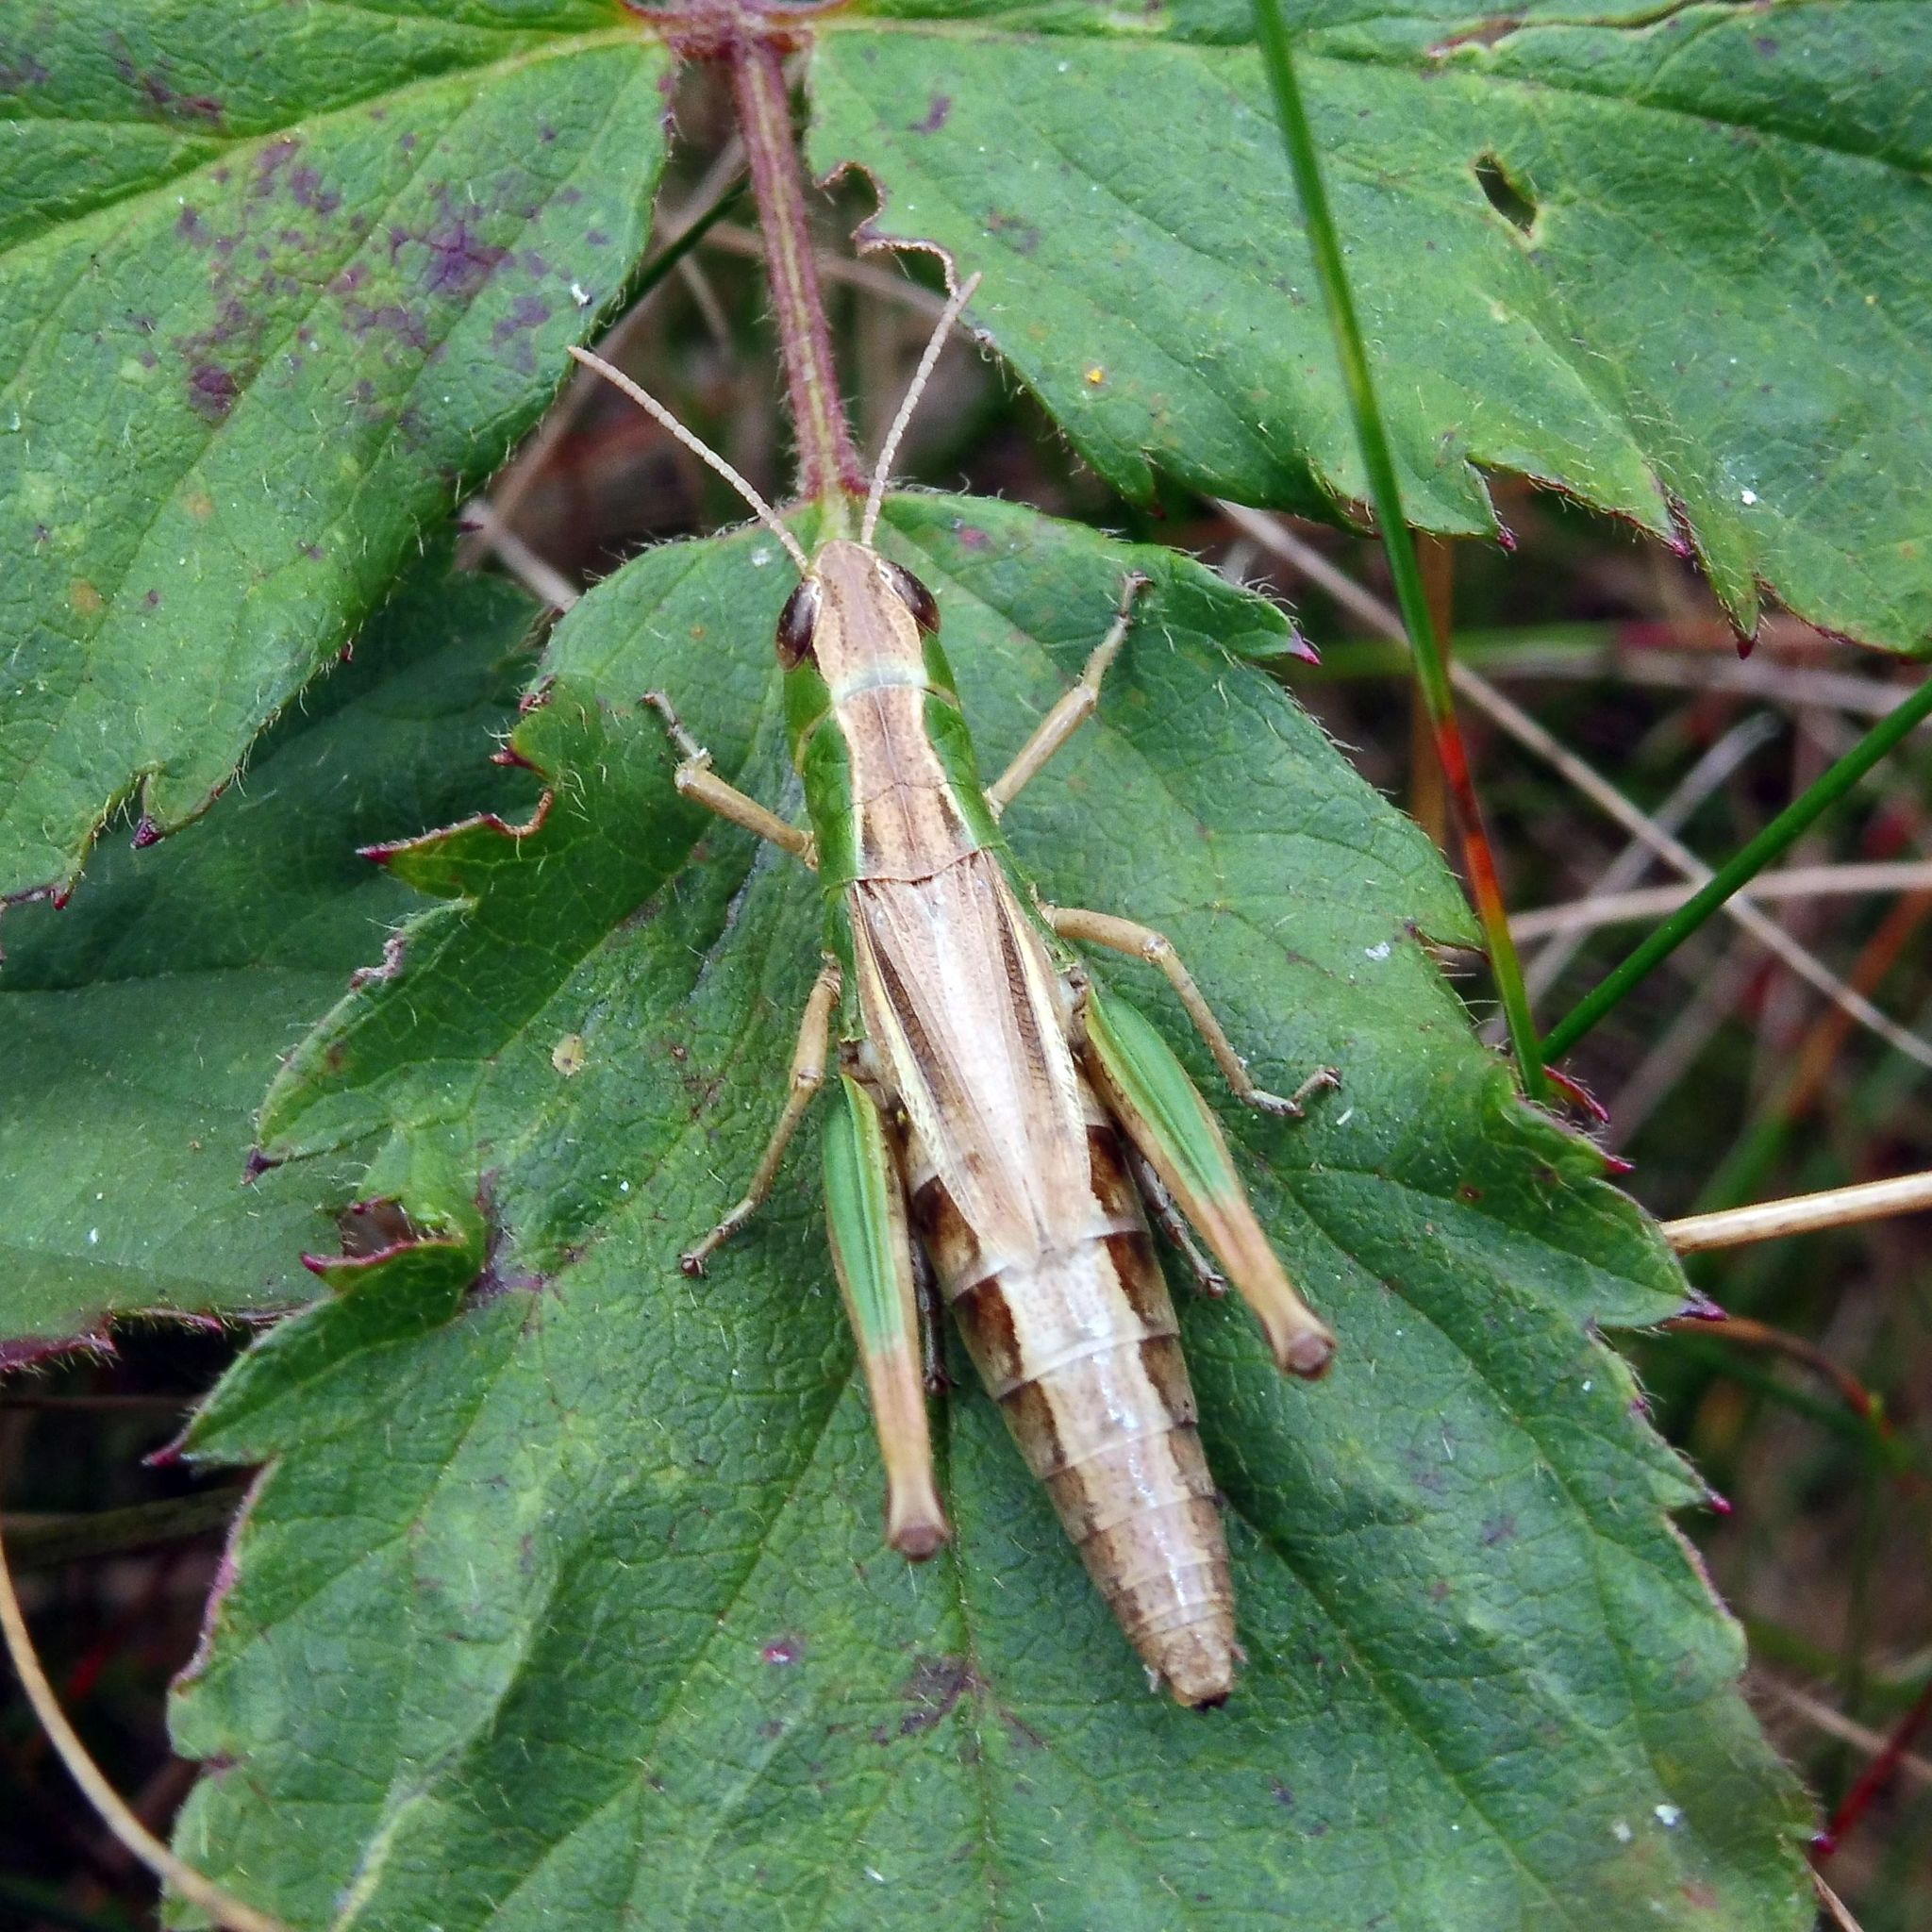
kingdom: Animalia
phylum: Arthropoda
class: Insecta
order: Orthoptera
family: Acrididae
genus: Pseudochorthippus
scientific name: Pseudochorthippus parallelus
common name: Meadow grasshopper
